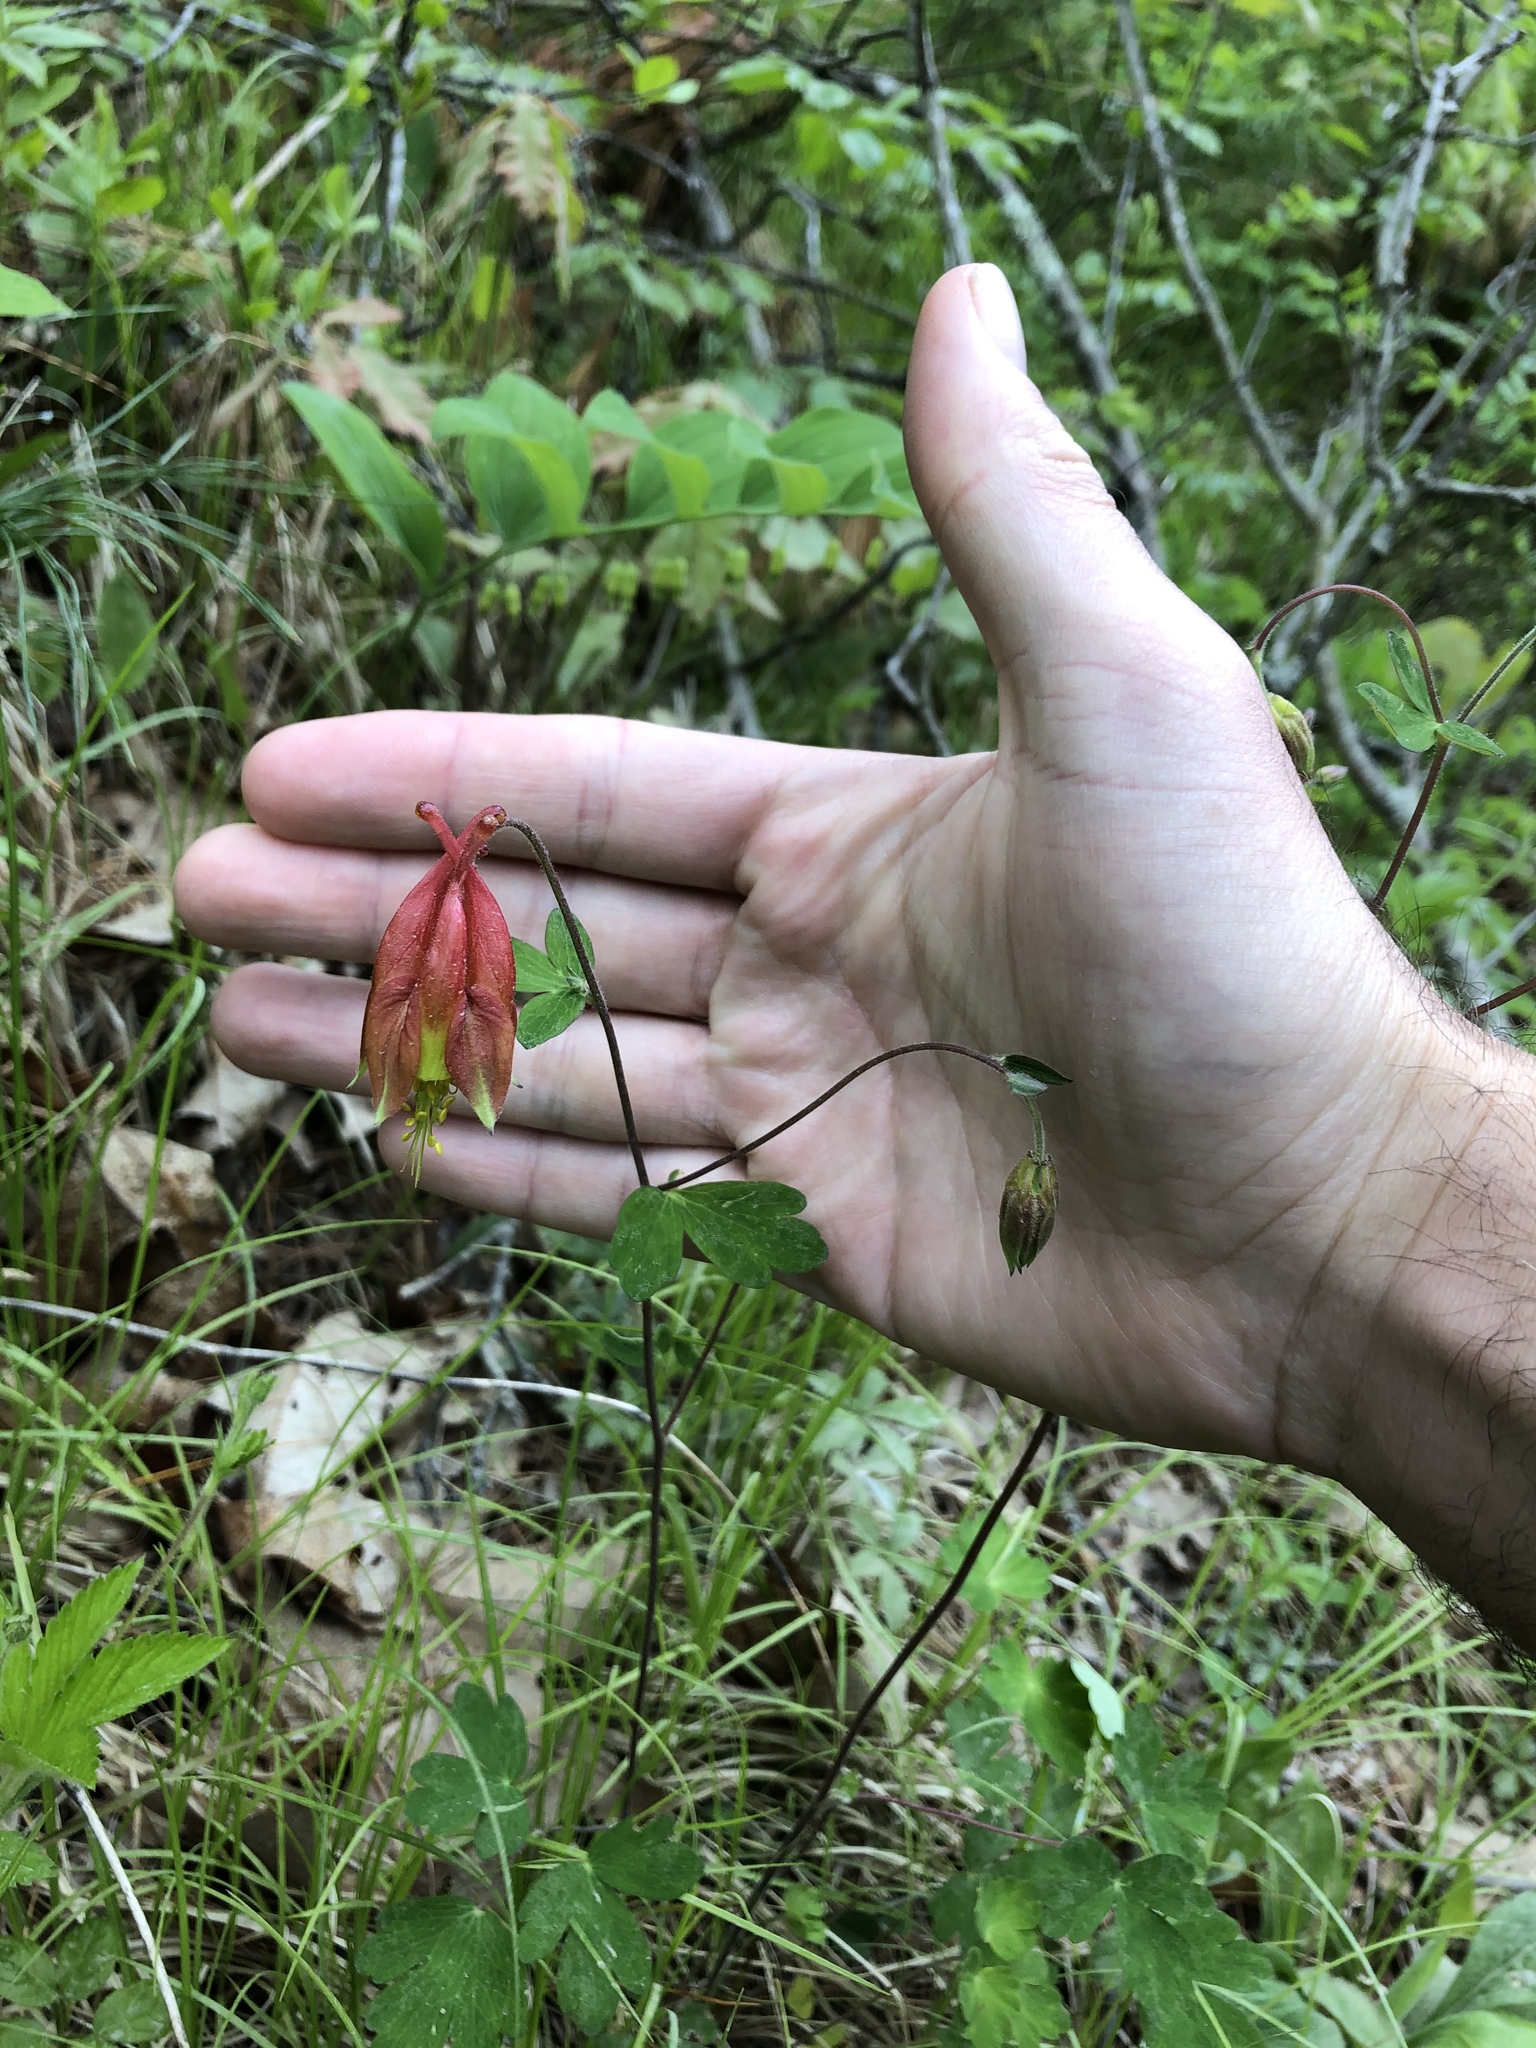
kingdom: Plantae
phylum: Tracheophyta
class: Magnoliopsida
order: Ranunculales
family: Ranunculaceae
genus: Aquilegia
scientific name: Aquilegia canadensis
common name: American columbine
